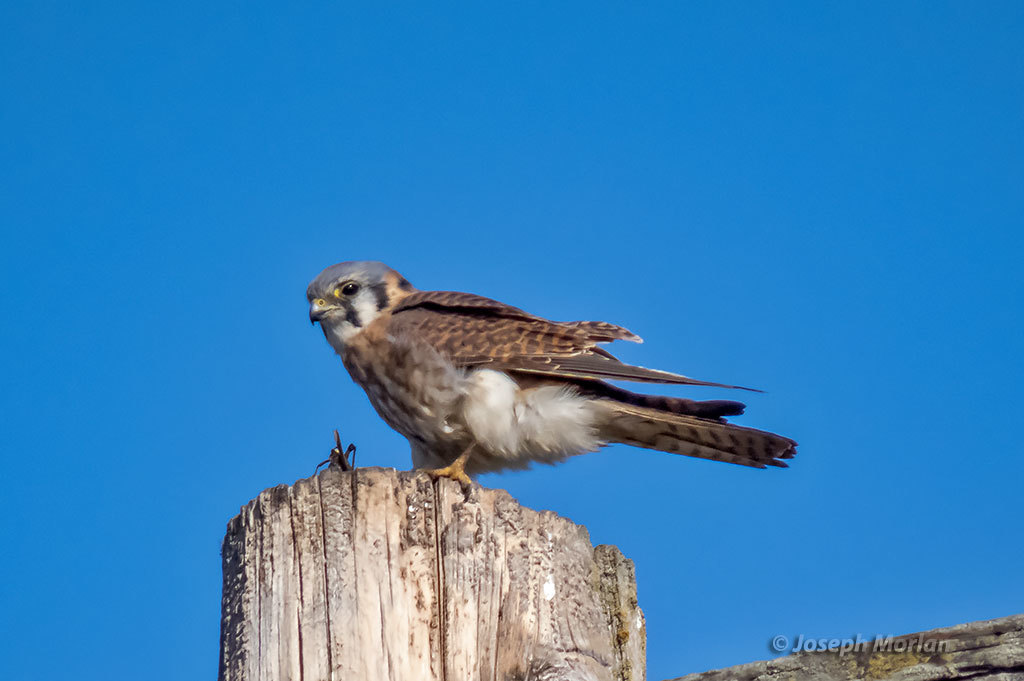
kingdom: Animalia
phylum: Chordata
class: Aves
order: Falconiformes
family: Falconidae
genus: Falco
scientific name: Falco sparverius
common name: American kestrel
